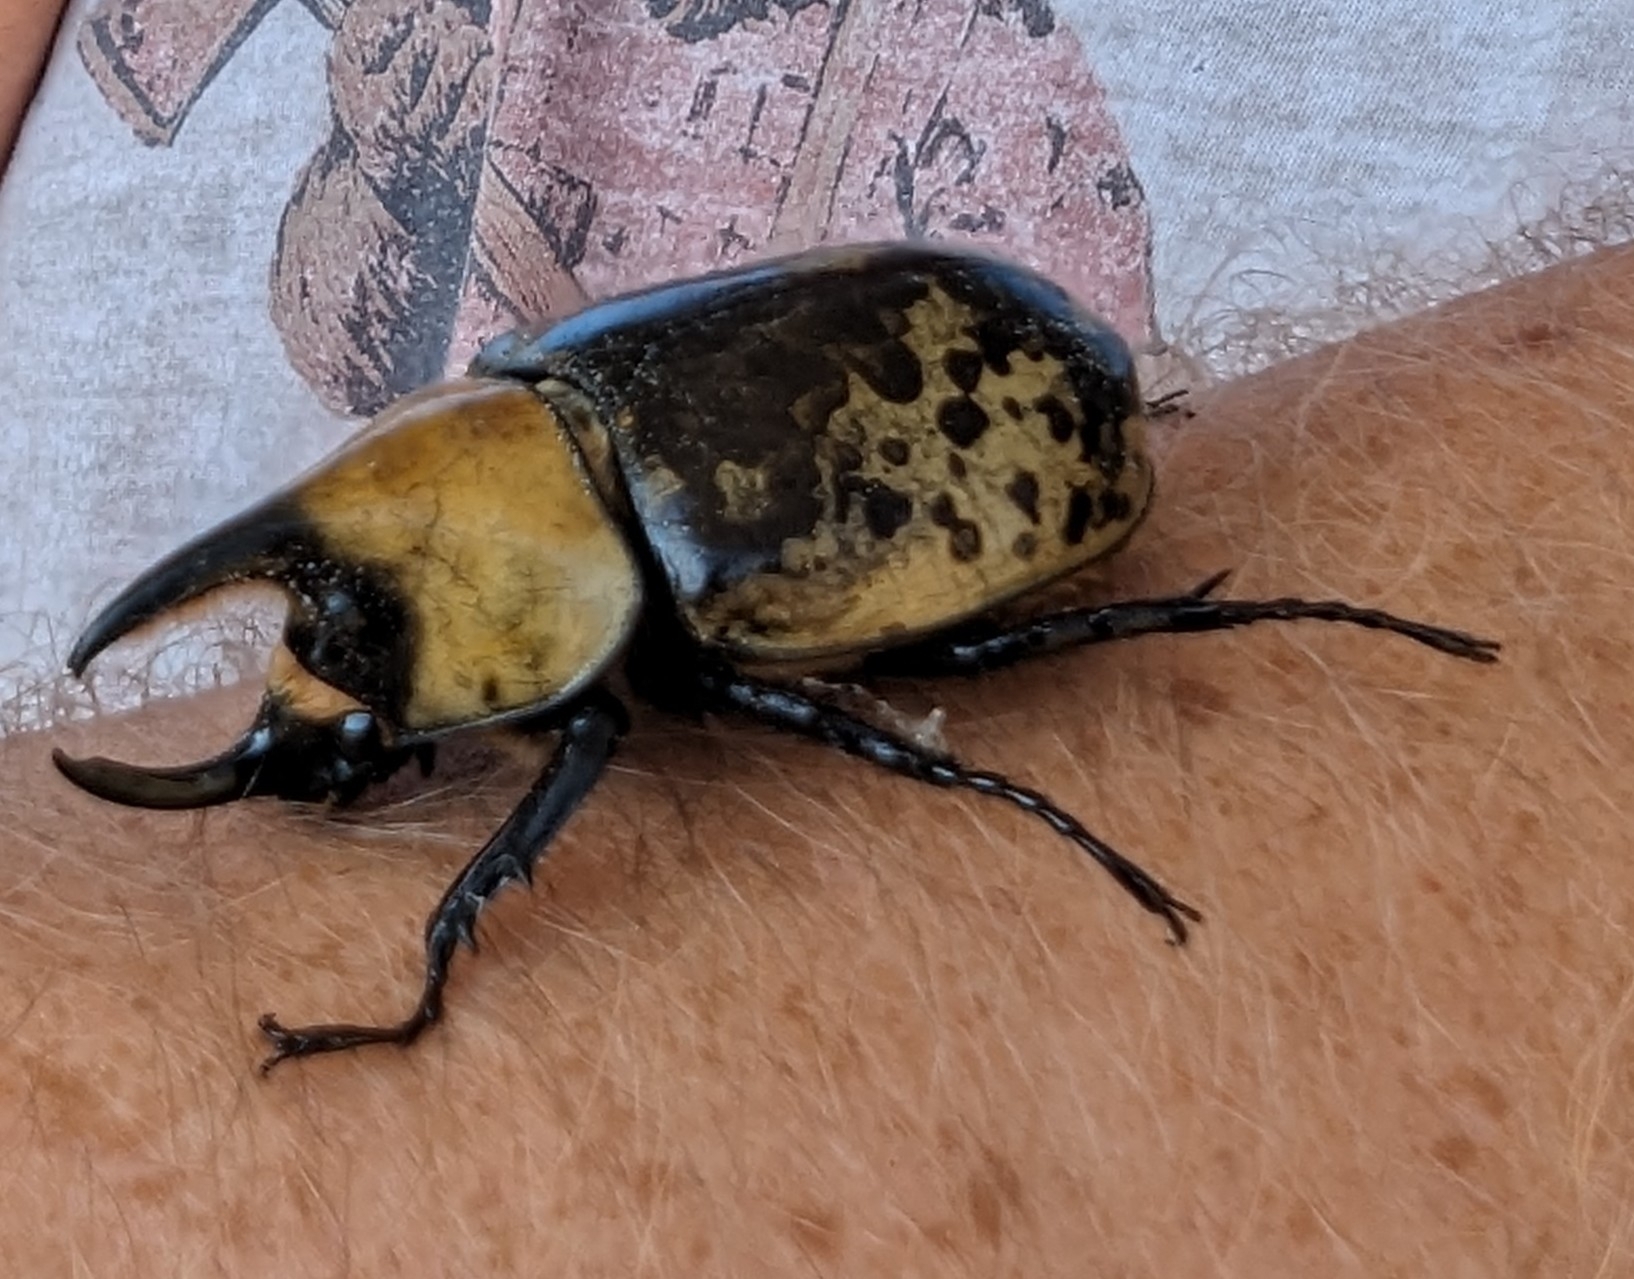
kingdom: Animalia
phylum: Arthropoda
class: Insecta
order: Coleoptera
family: Scarabaeidae
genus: Dynastes
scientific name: Dynastes tityus
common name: Eastern hercules beetle
